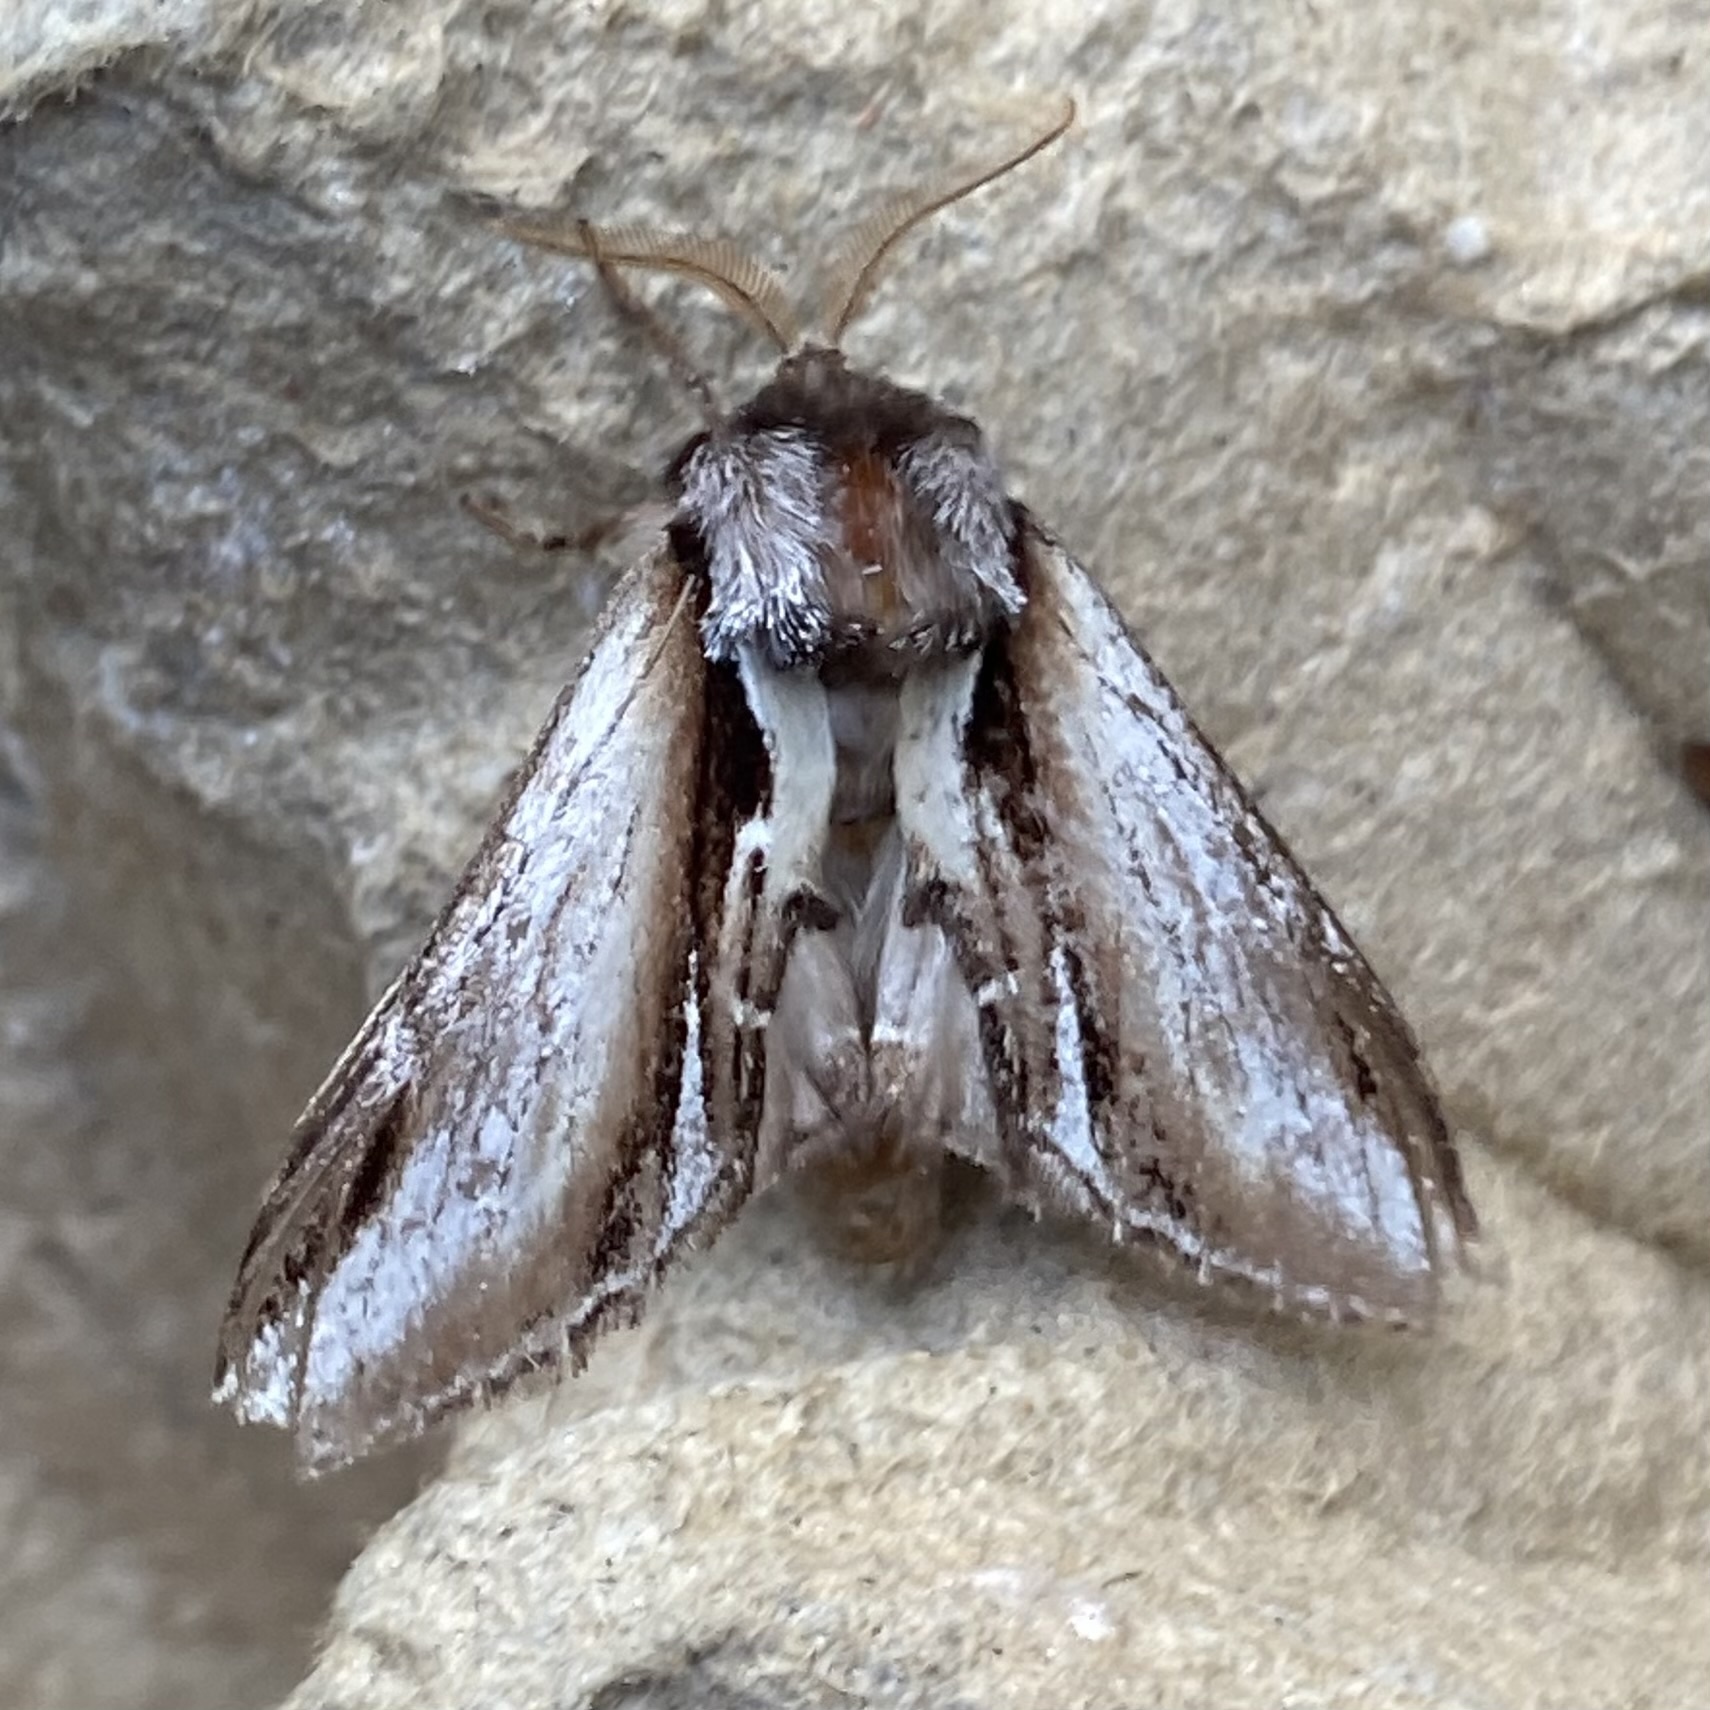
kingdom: Animalia
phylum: Arthropoda
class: Insecta
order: Lepidoptera
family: Notodontidae
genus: Pheosia
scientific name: Pheosia gnoma
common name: Lesser swallow prominent
